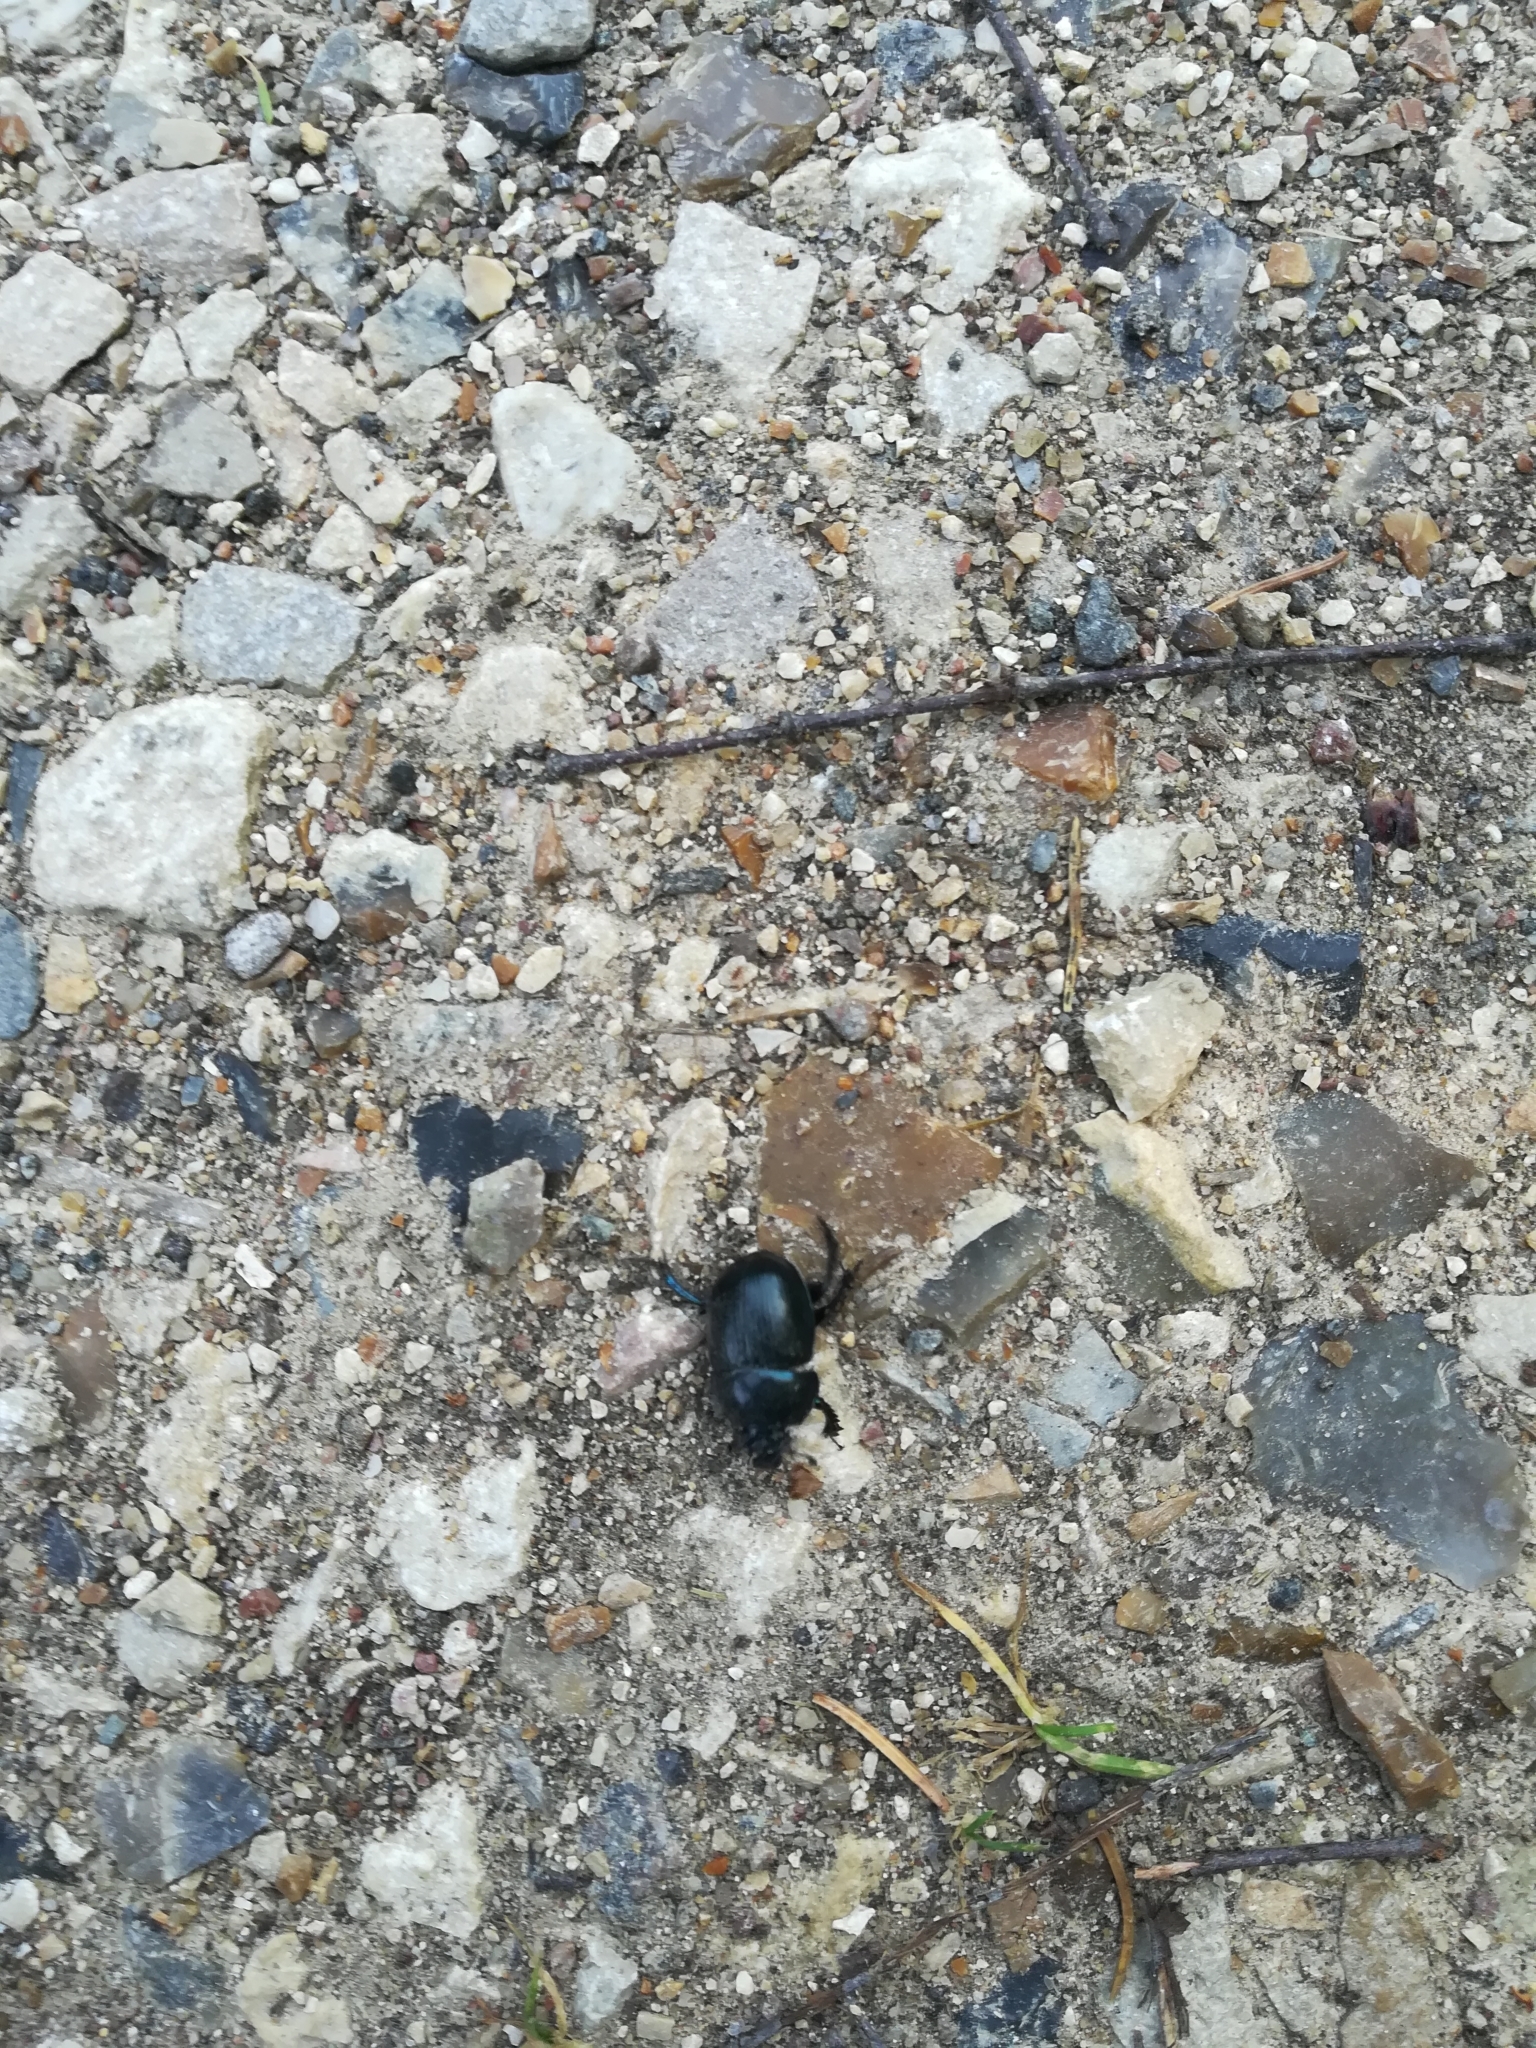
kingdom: Animalia
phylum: Arthropoda
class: Insecta
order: Coleoptera
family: Geotrupidae
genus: Anoplotrupes
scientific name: Anoplotrupes stercorosus
